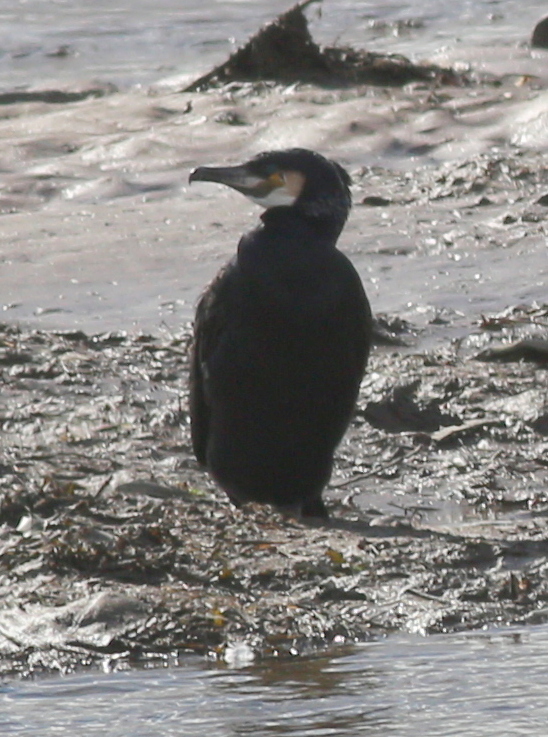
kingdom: Animalia
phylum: Chordata
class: Aves
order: Suliformes
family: Phalacrocoracidae
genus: Phalacrocorax
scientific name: Phalacrocorax carbo
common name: Great cormorant
